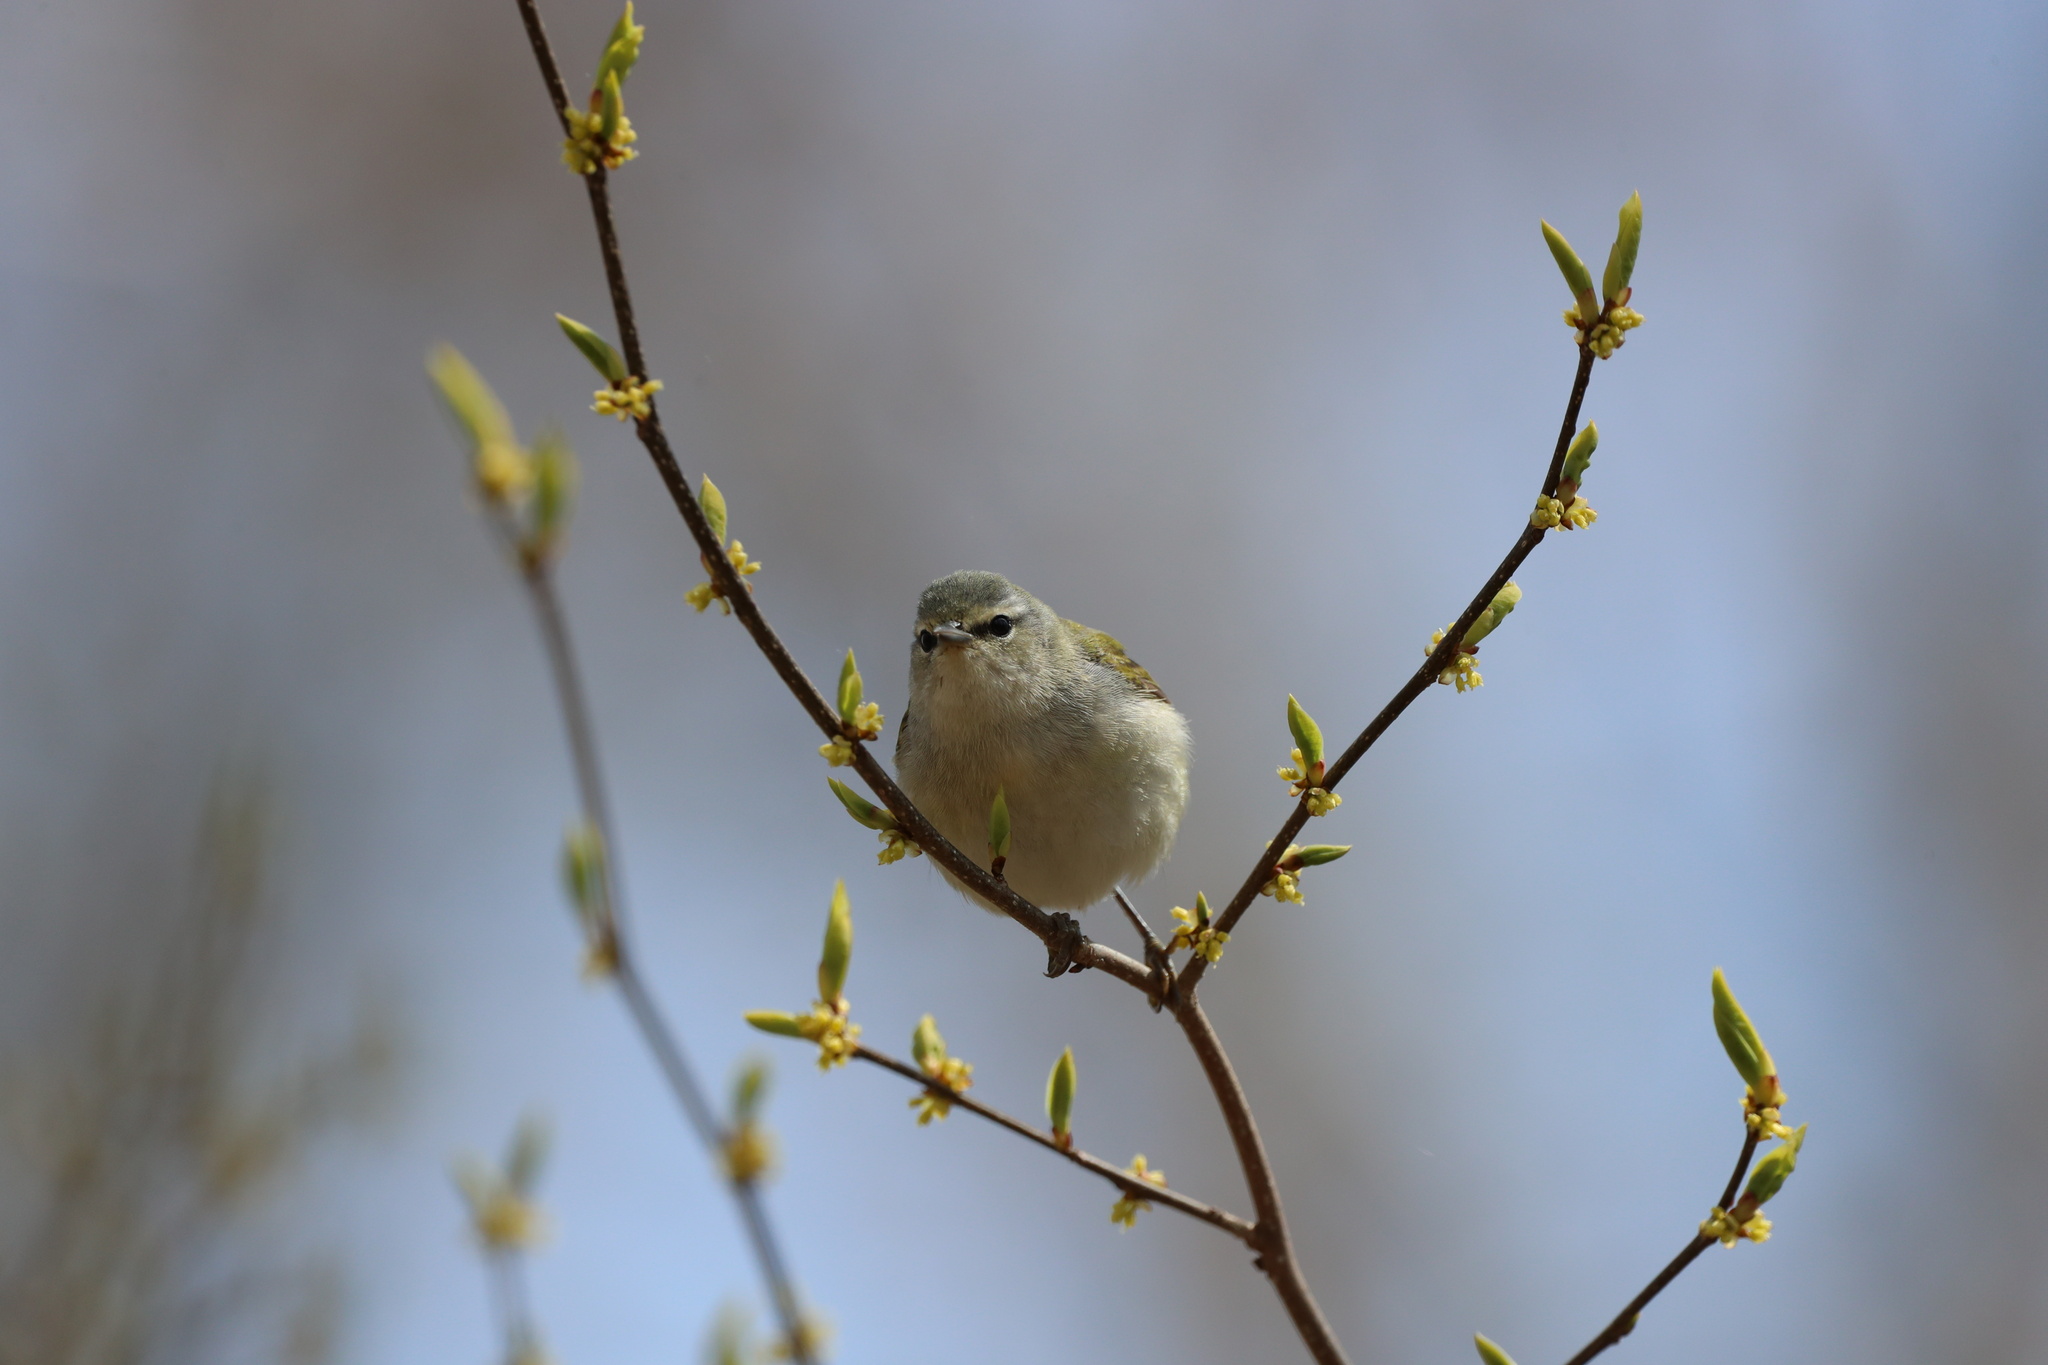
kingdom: Animalia
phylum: Chordata
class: Aves
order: Passeriformes
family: Parulidae
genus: Leiothlypis
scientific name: Leiothlypis peregrina
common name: Tennessee warbler
